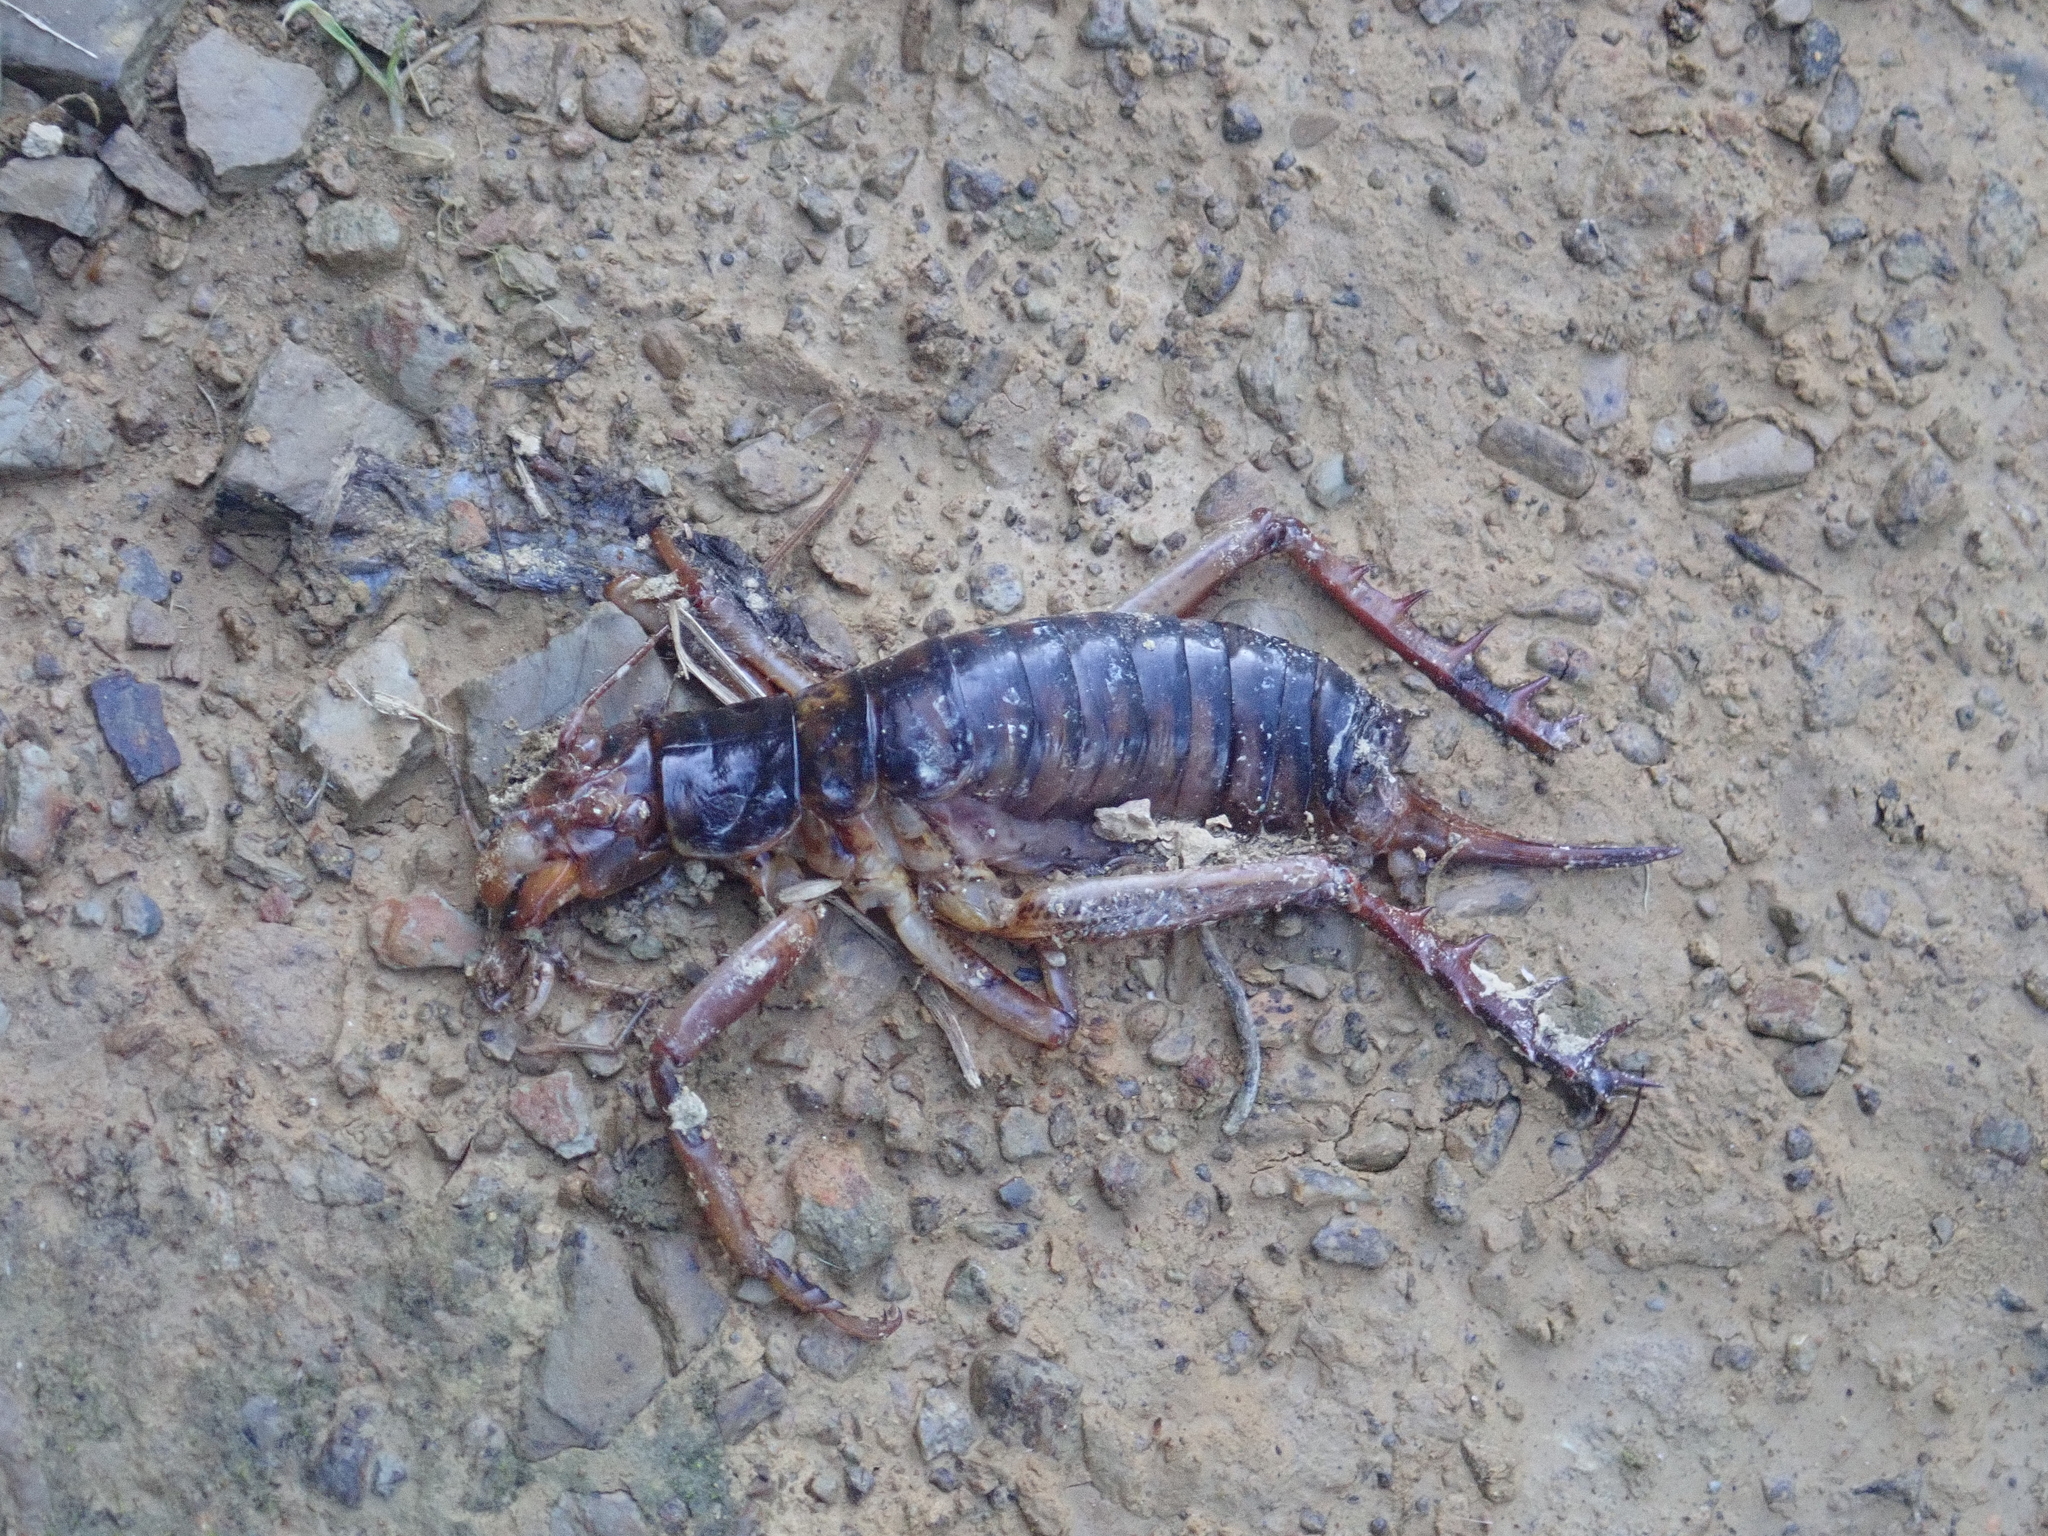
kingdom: Animalia
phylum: Arthropoda
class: Insecta
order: Orthoptera
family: Anostostomatidae
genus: Hemideina
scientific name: Hemideina crassidens
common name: Wellington tree weta
